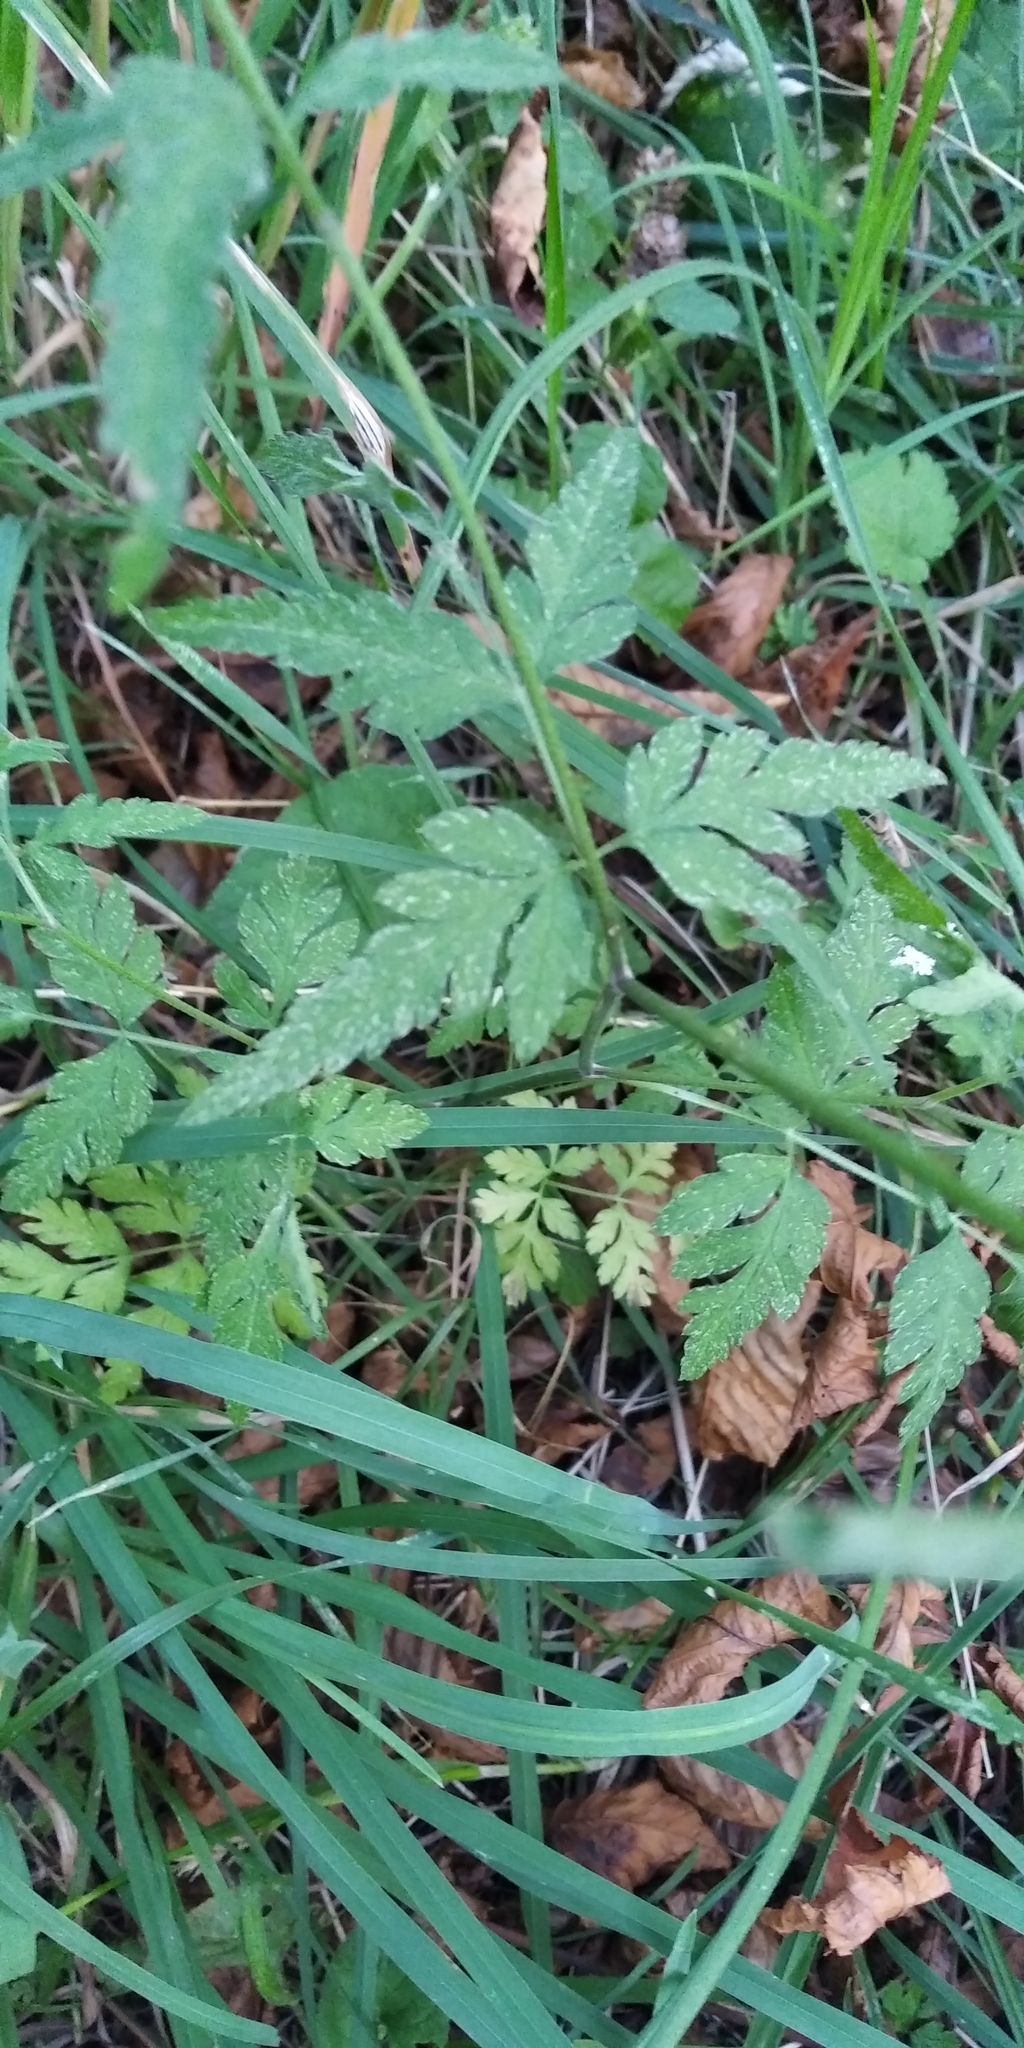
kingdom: Plantae
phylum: Tracheophyta
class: Magnoliopsida
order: Apiales
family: Apiaceae
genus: Torilis
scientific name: Torilis japonica
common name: Upright hedge-parsley
